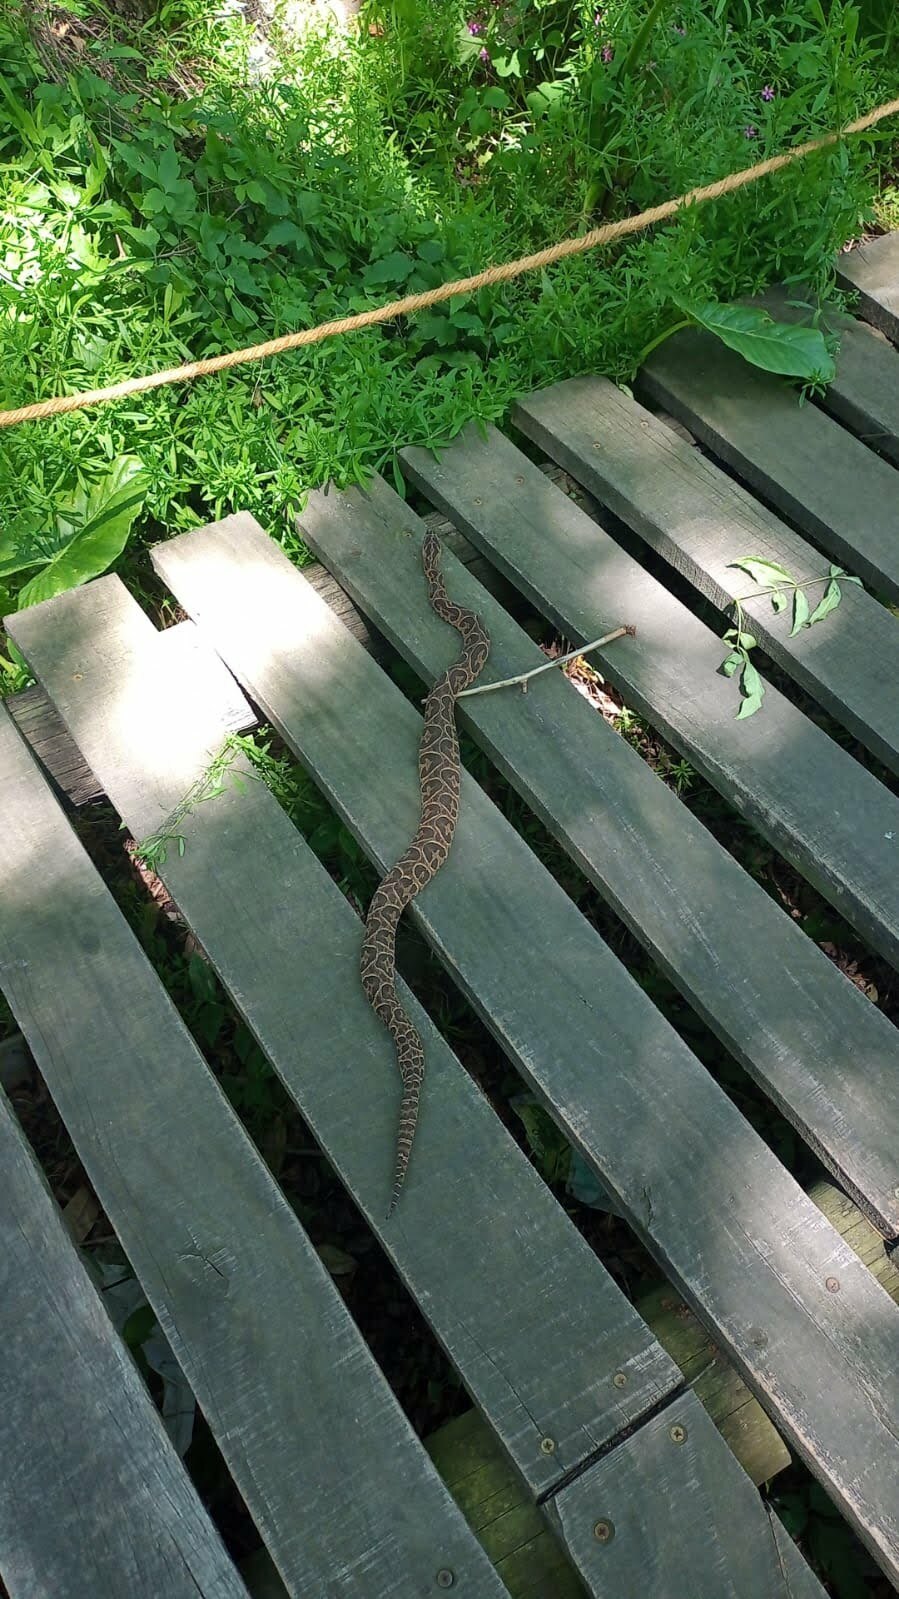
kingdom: Animalia
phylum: Chordata
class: Squamata
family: Viperidae
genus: Bothrops
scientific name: Bothrops alternatus
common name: Urutu
